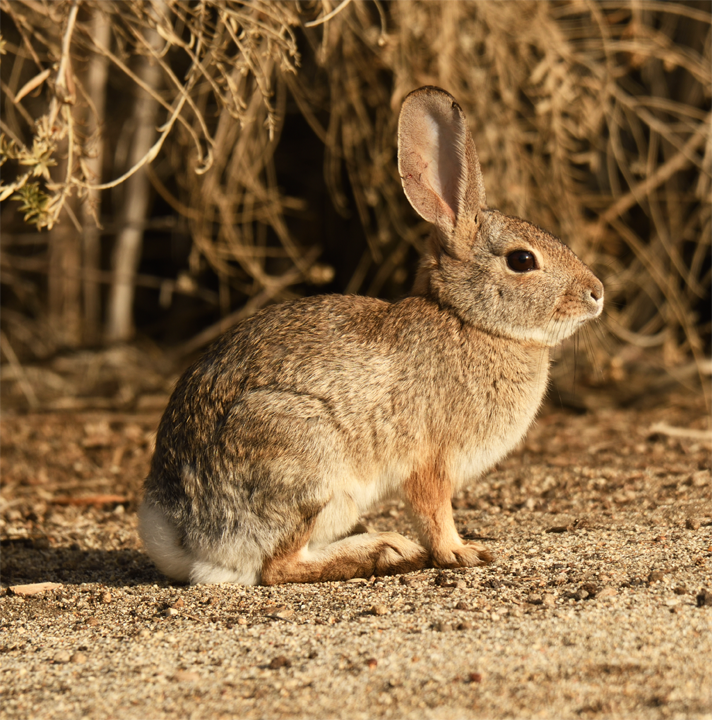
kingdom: Animalia
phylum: Chordata
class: Mammalia
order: Lagomorpha
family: Leporidae
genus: Sylvilagus
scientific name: Sylvilagus audubonii
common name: Desert cottontail
